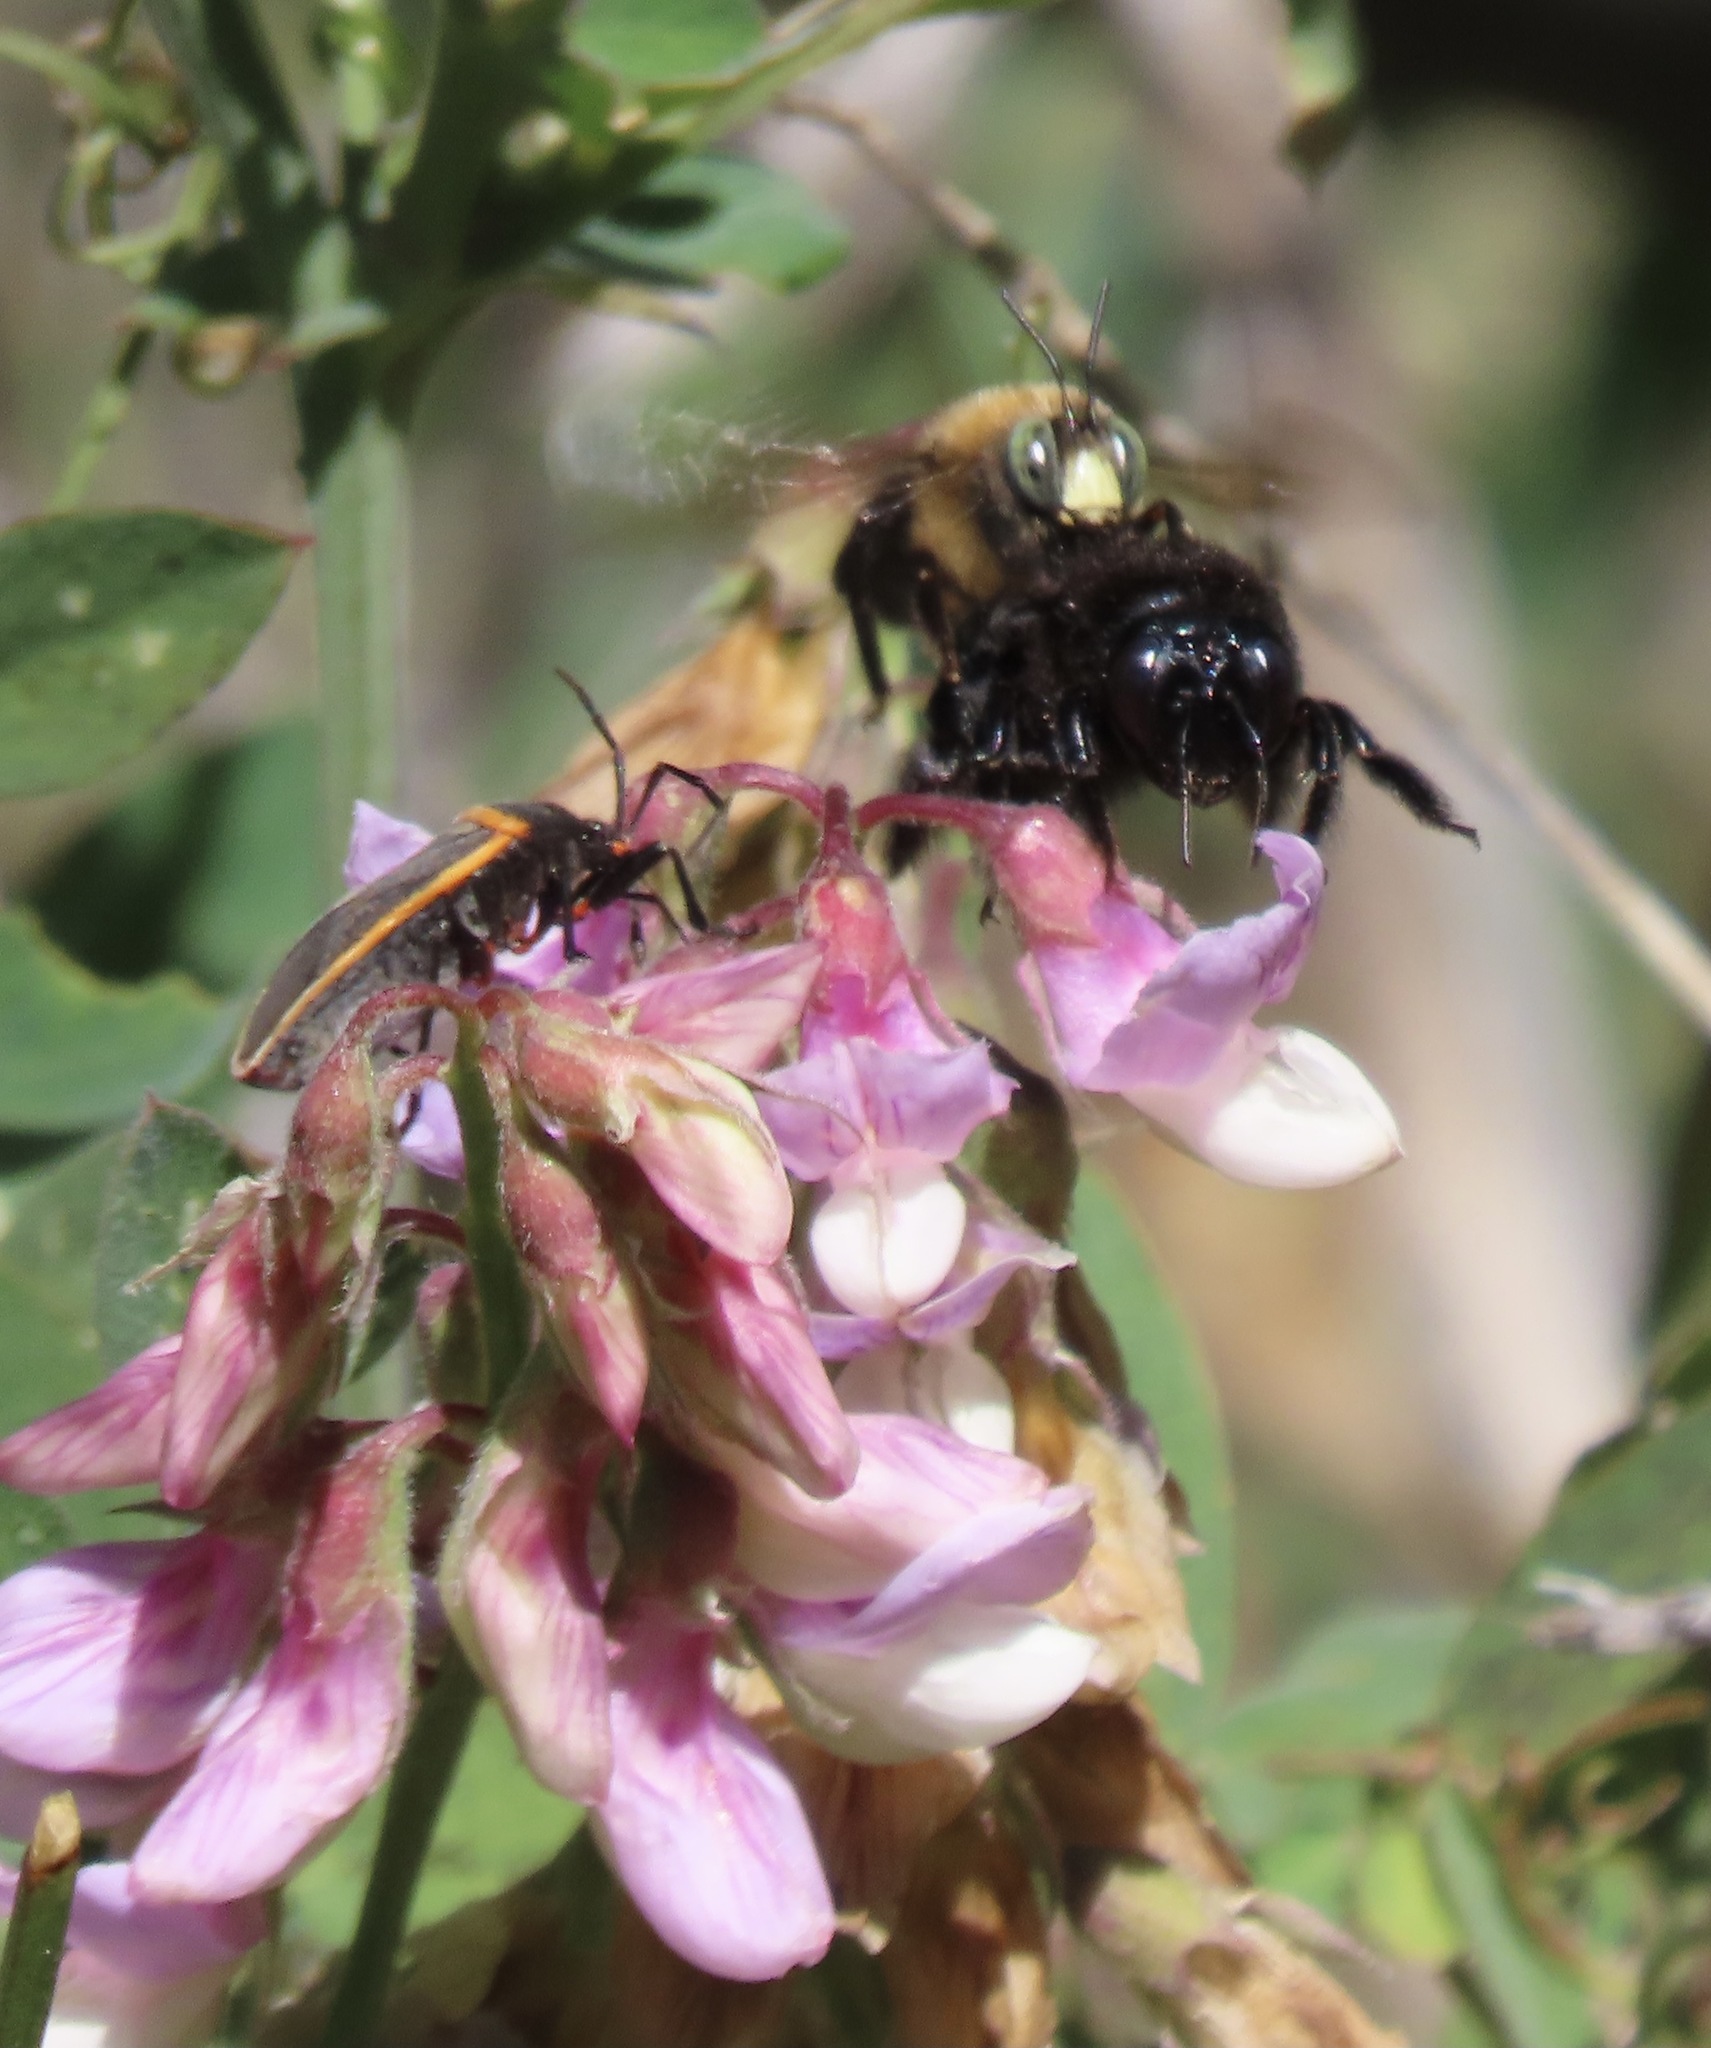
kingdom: Animalia
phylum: Arthropoda
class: Insecta
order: Hymenoptera
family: Apidae
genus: Xylocopa
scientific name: Xylocopa tabaniformis
